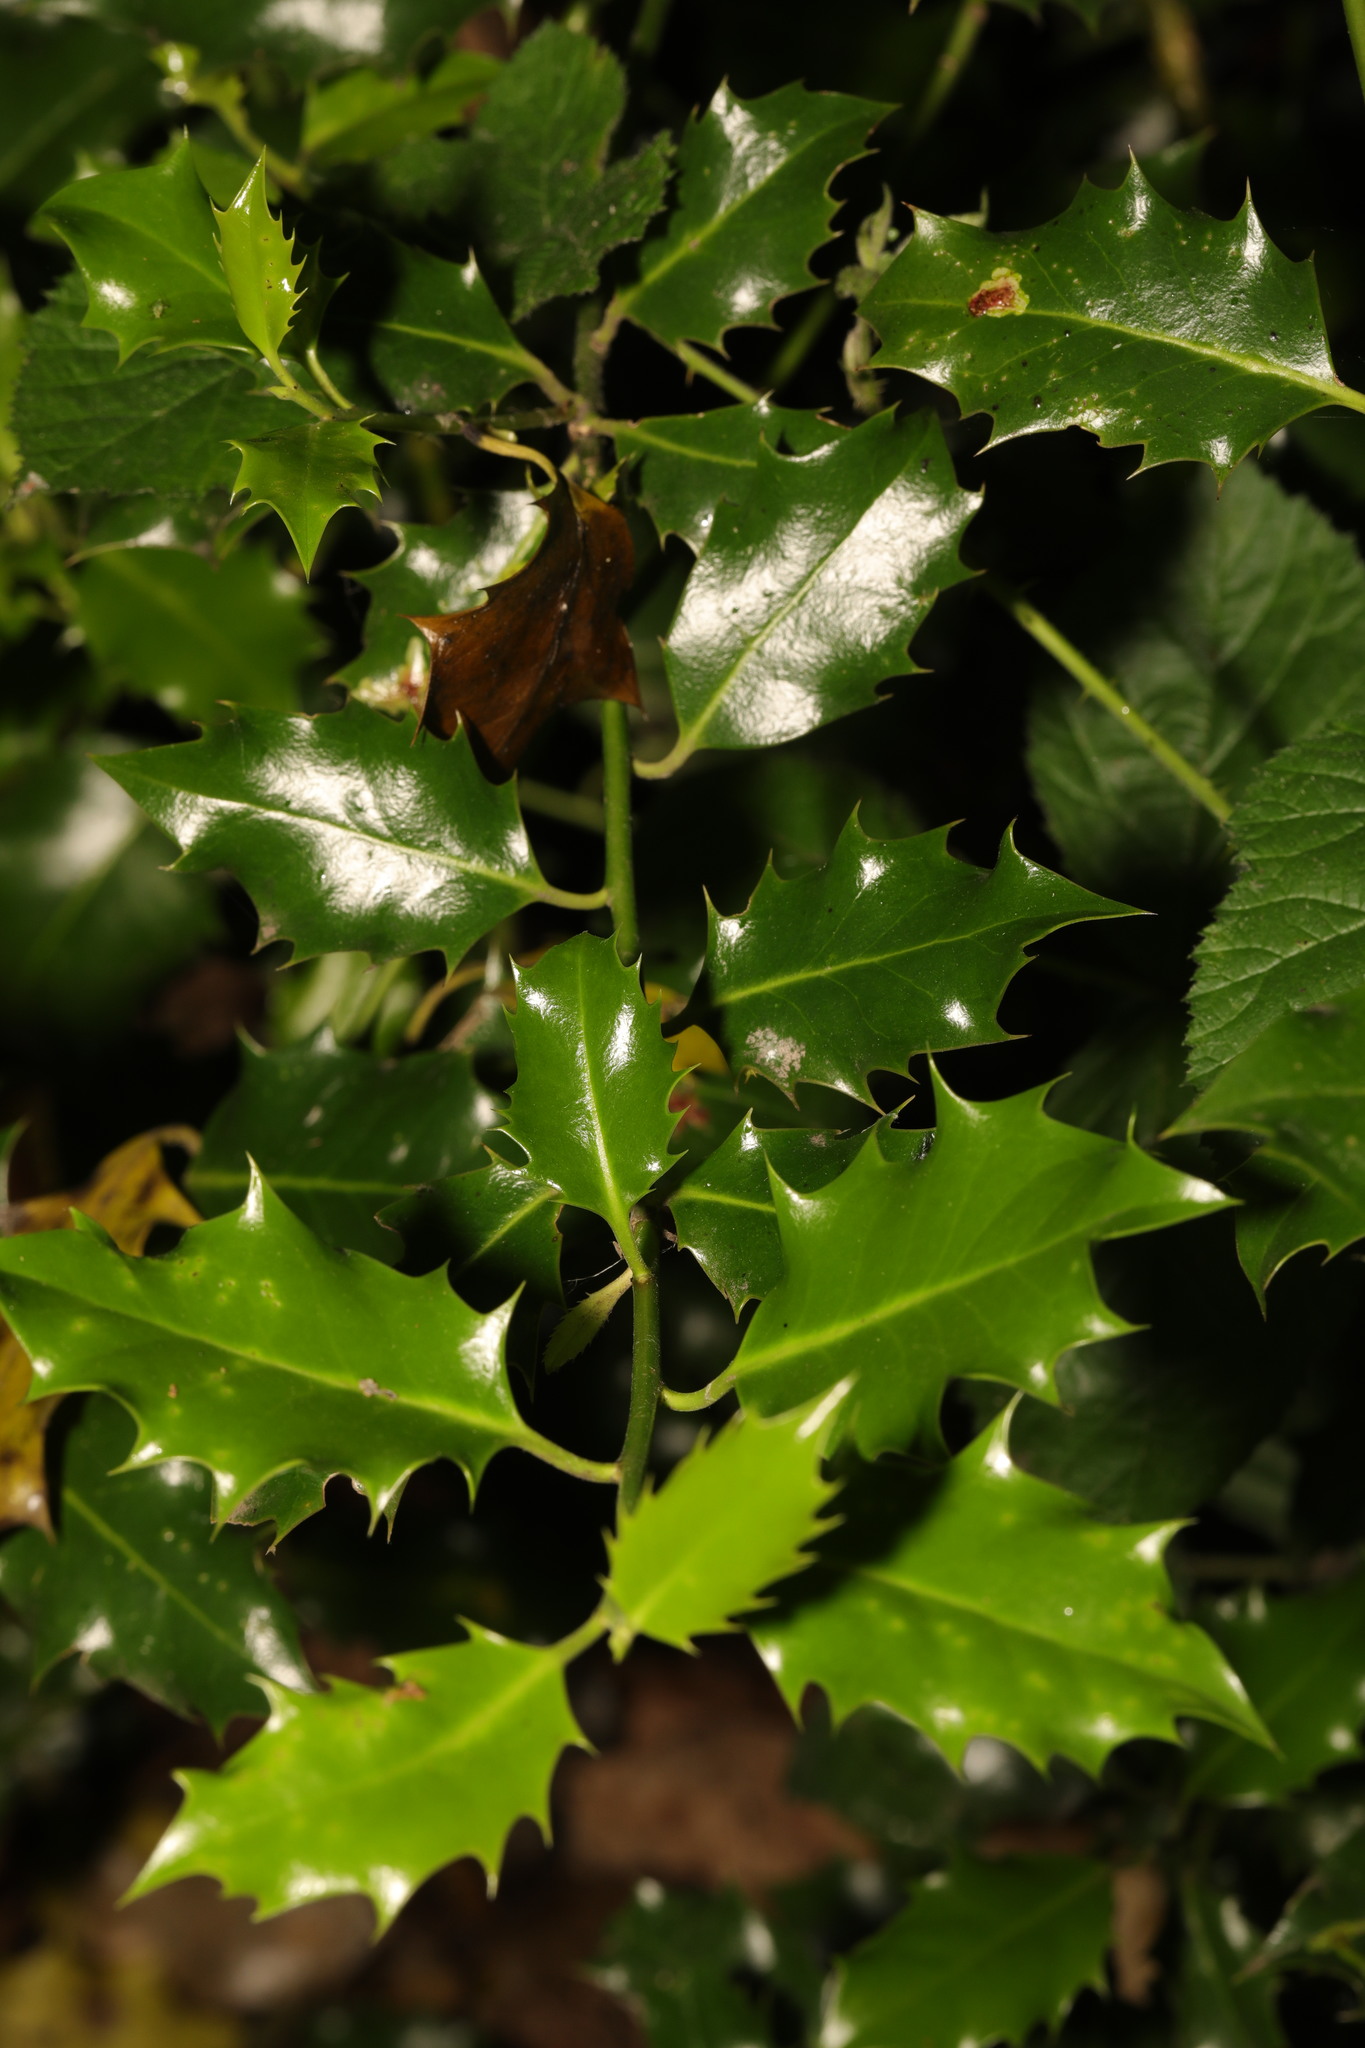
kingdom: Plantae
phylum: Tracheophyta
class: Magnoliopsida
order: Aquifoliales
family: Aquifoliaceae
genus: Ilex
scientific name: Ilex aquifolium
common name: English holly
